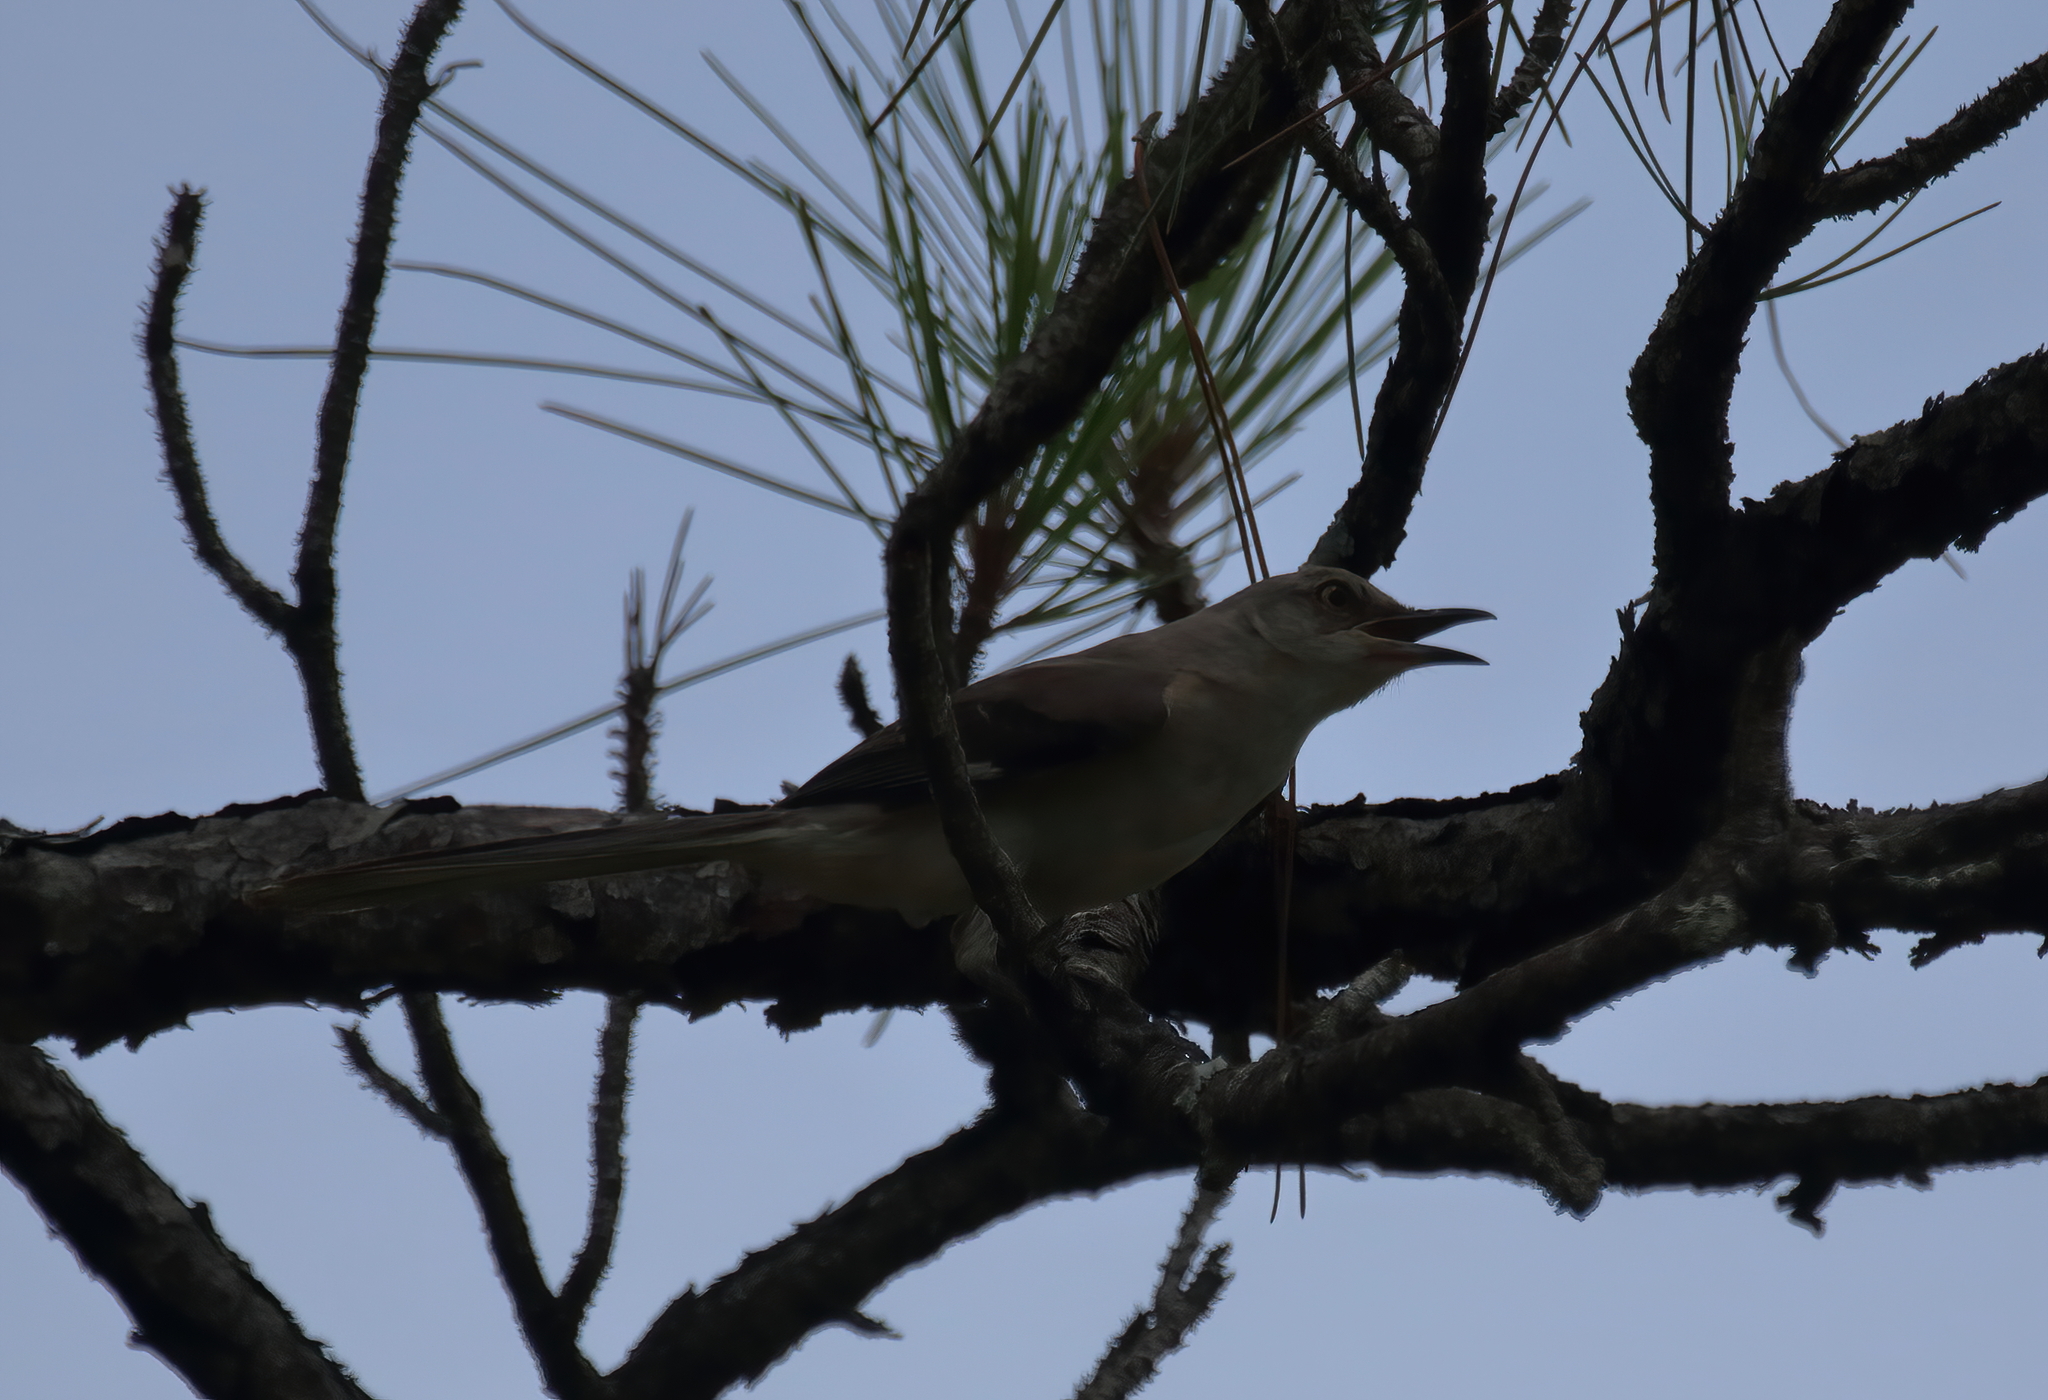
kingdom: Animalia
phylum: Chordata
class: Aves
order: Passeriformes
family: Mimidae
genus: Mimus
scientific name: Mimus polyglottos
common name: Northern mockingbird
